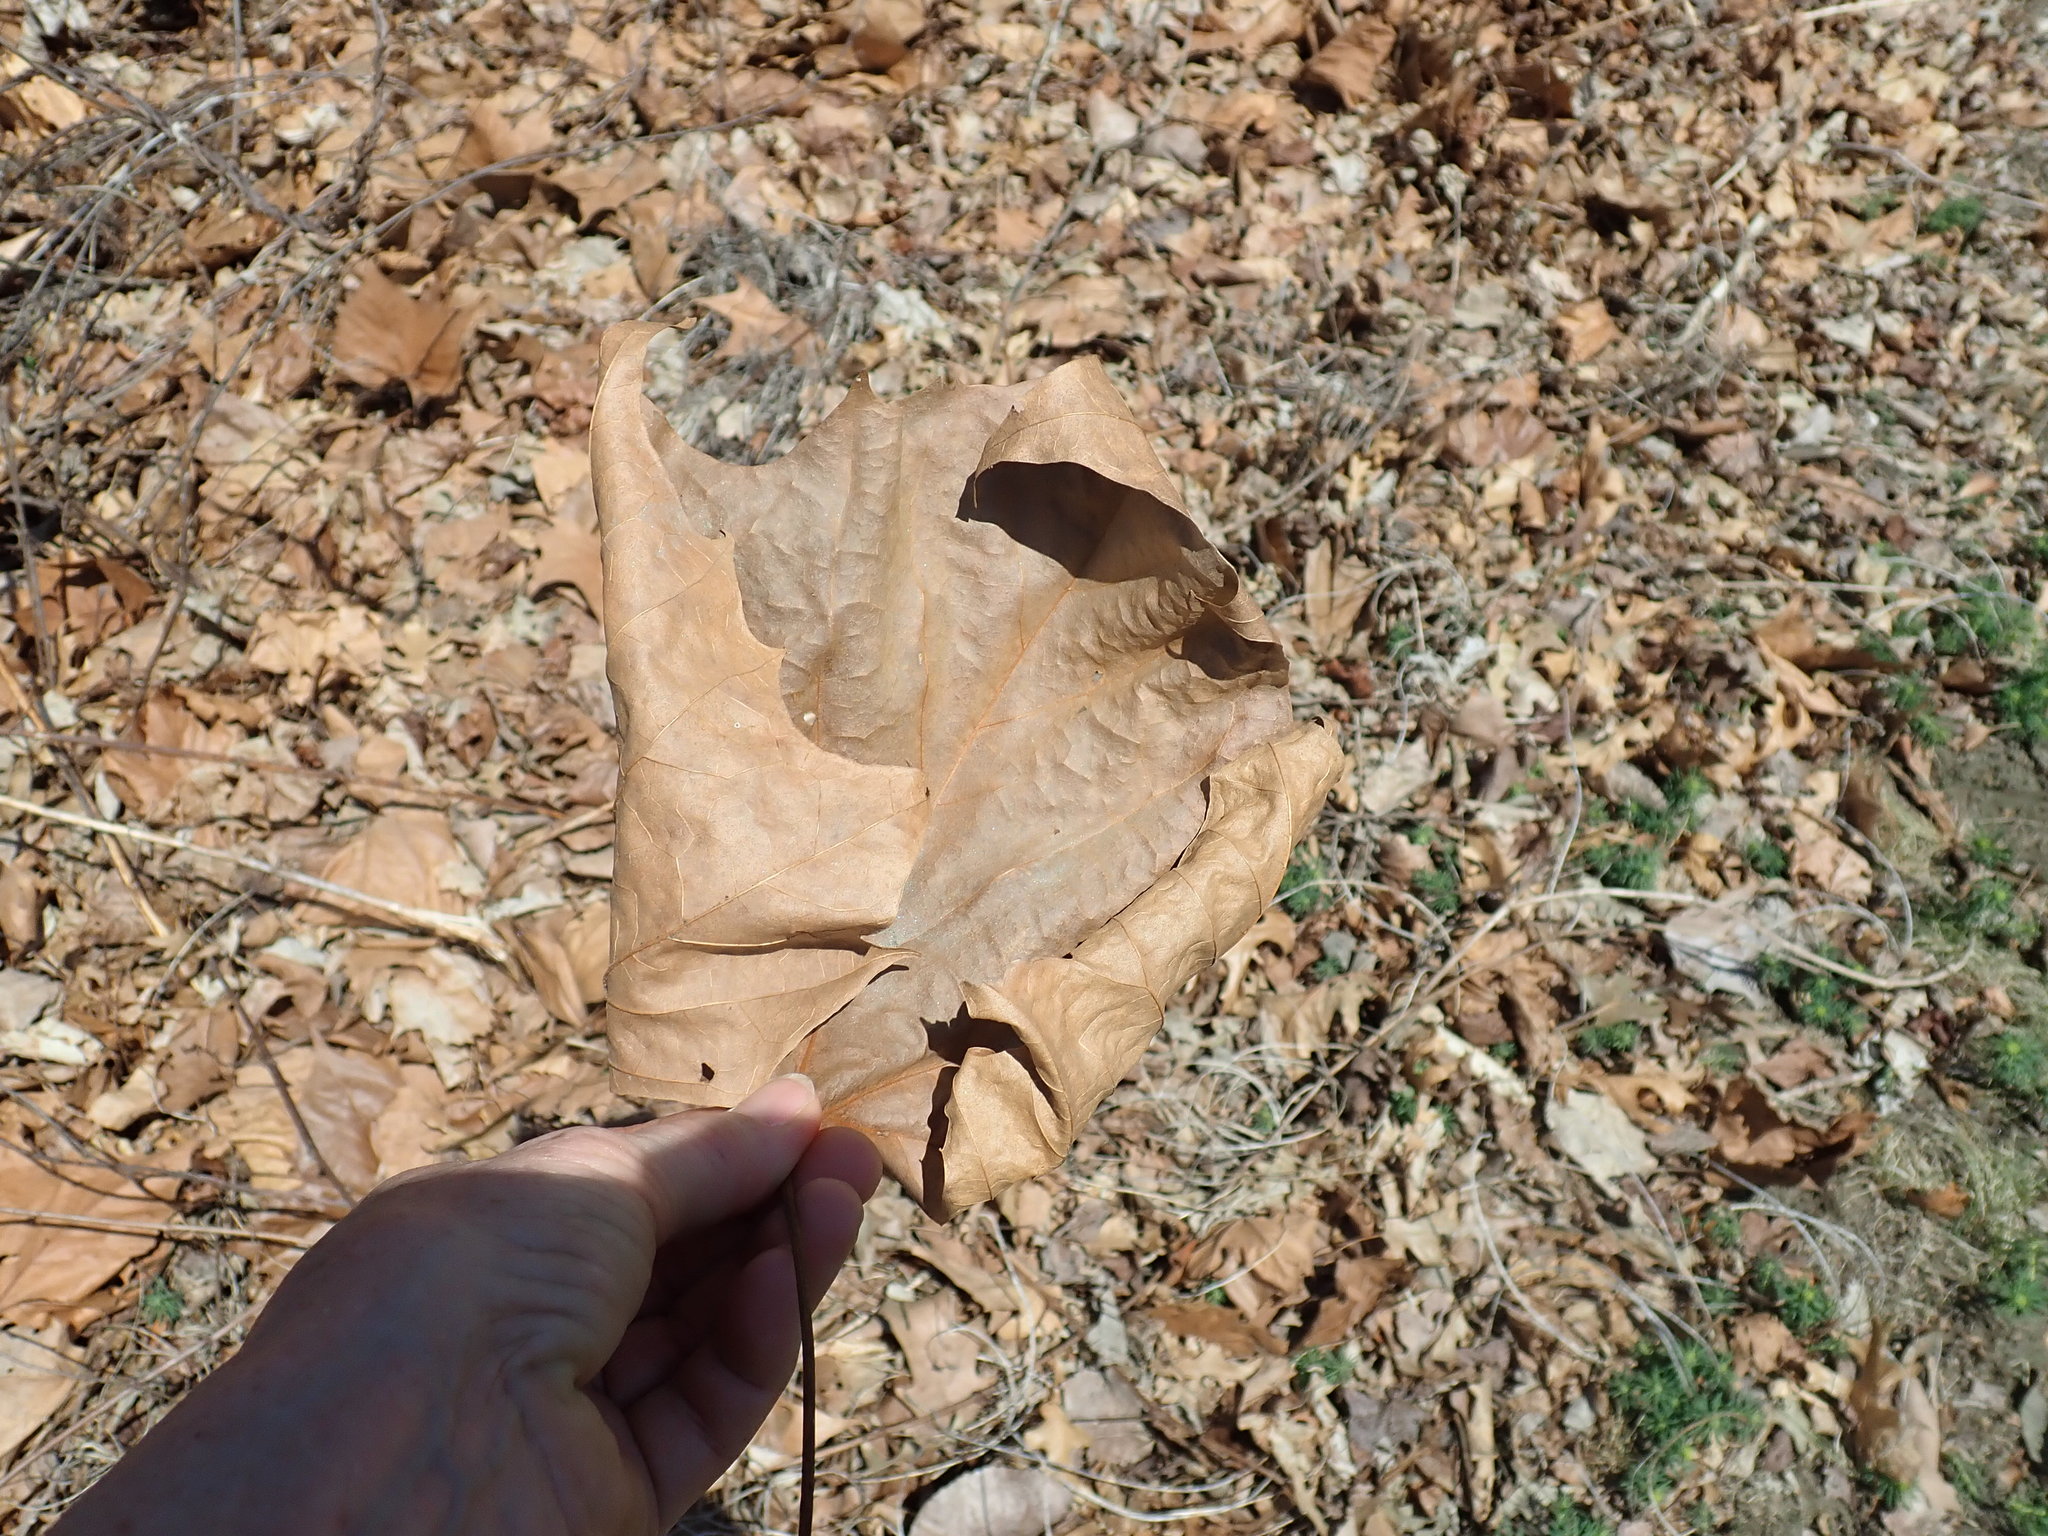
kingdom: Plantae
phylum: Tracheophyta
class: Magnoliopsida
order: Proteales
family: Platanaceae
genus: Platanus
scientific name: Platanus occidentalis
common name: American sycamore
